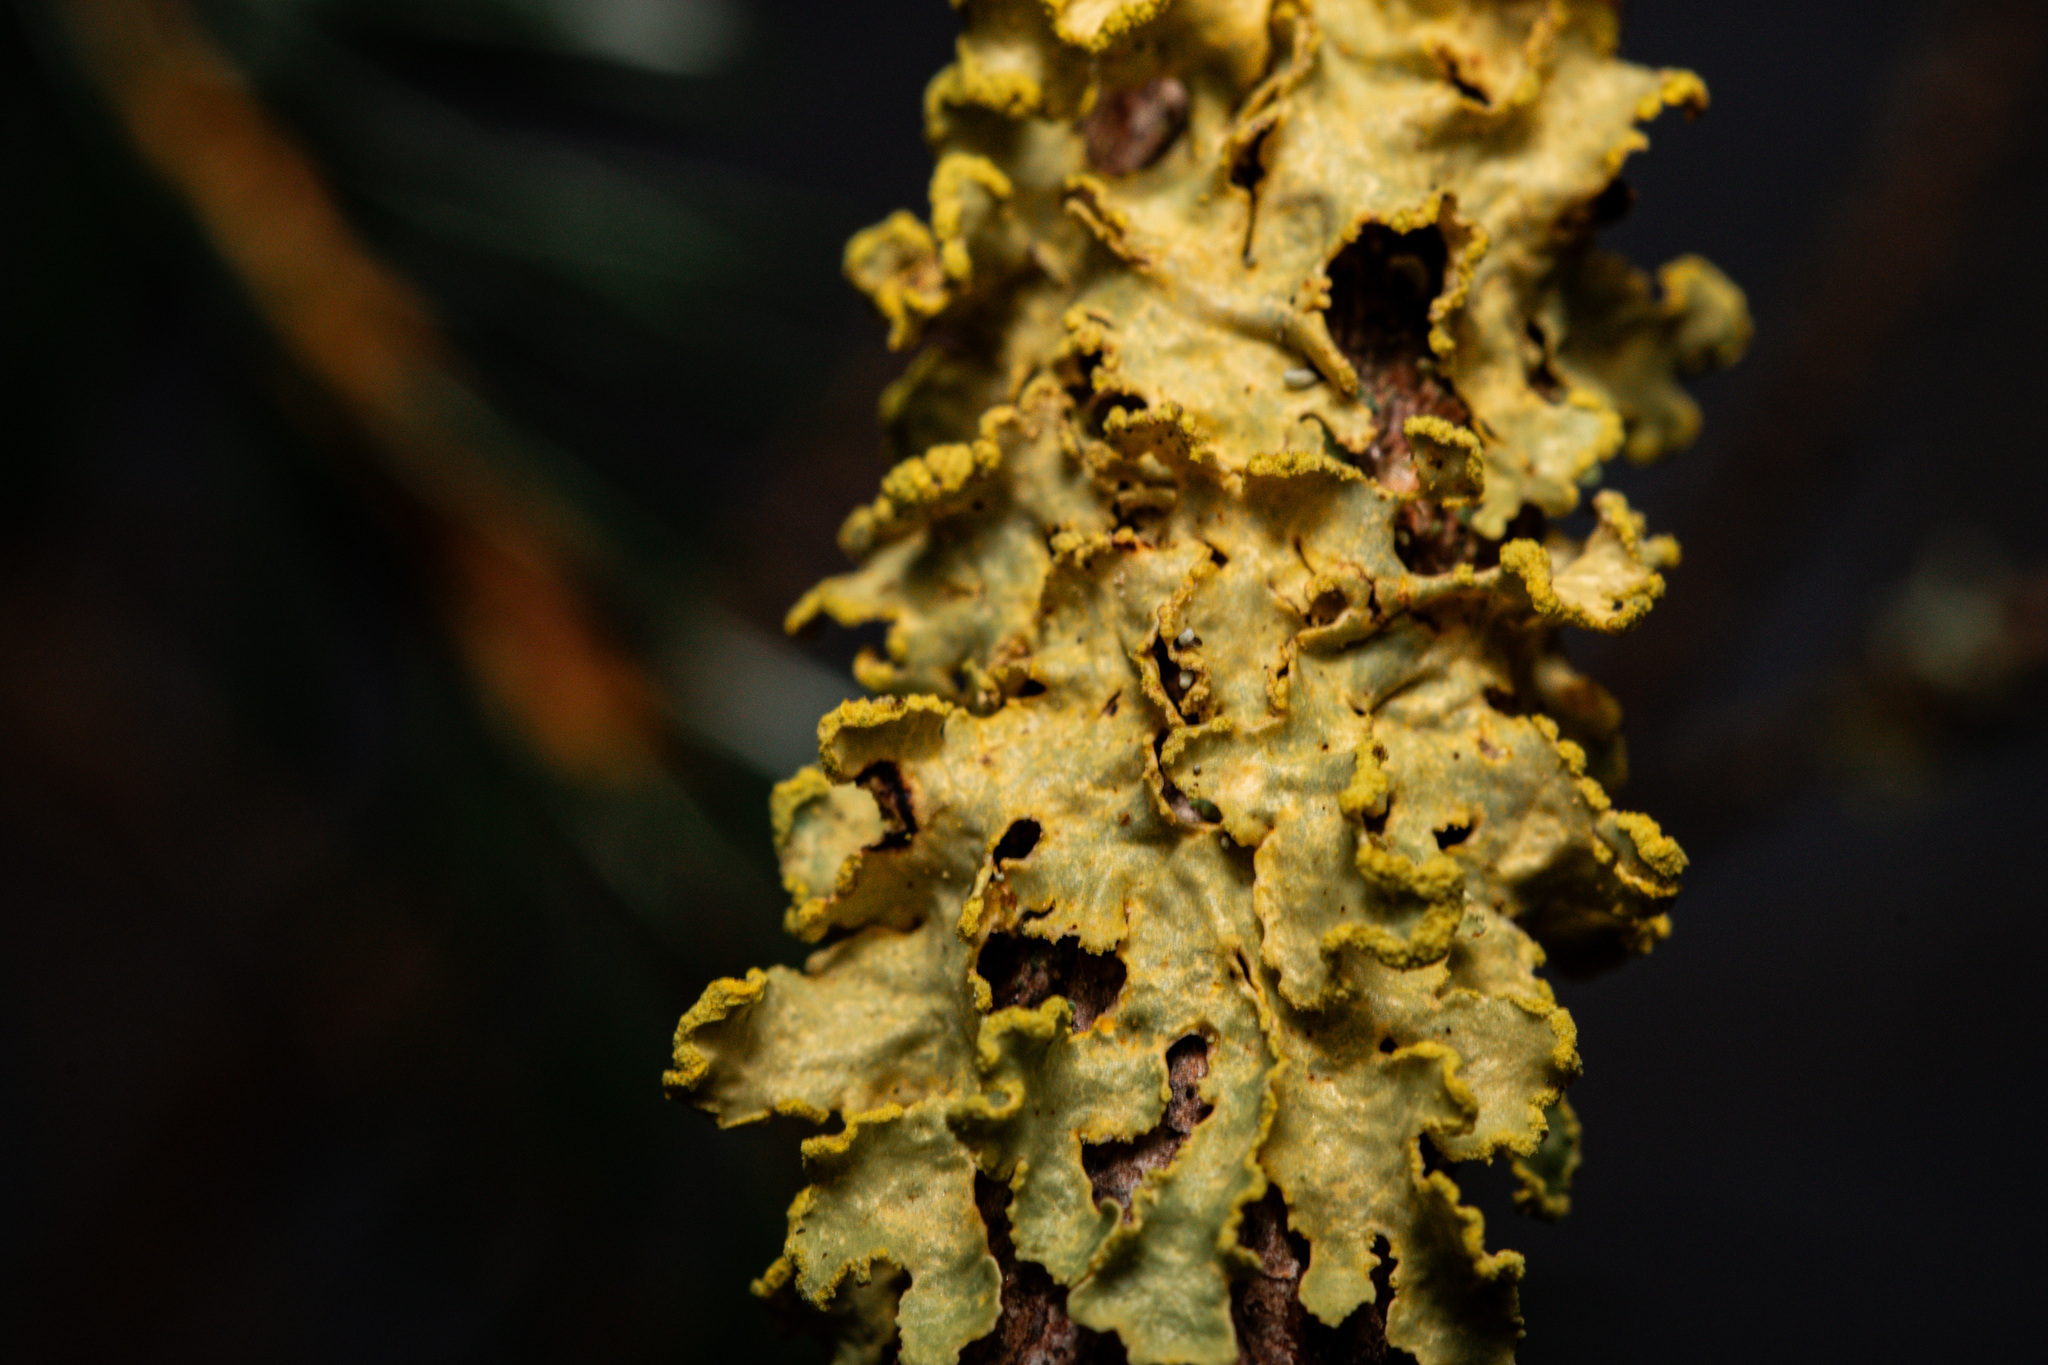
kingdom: Fungi
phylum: Ascomycota
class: Lecanoromycetes
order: Lecanorales
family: Parmeliaceae
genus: Vulpicida
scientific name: Vulpicida pinastri
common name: Powdered sunshine lichen
